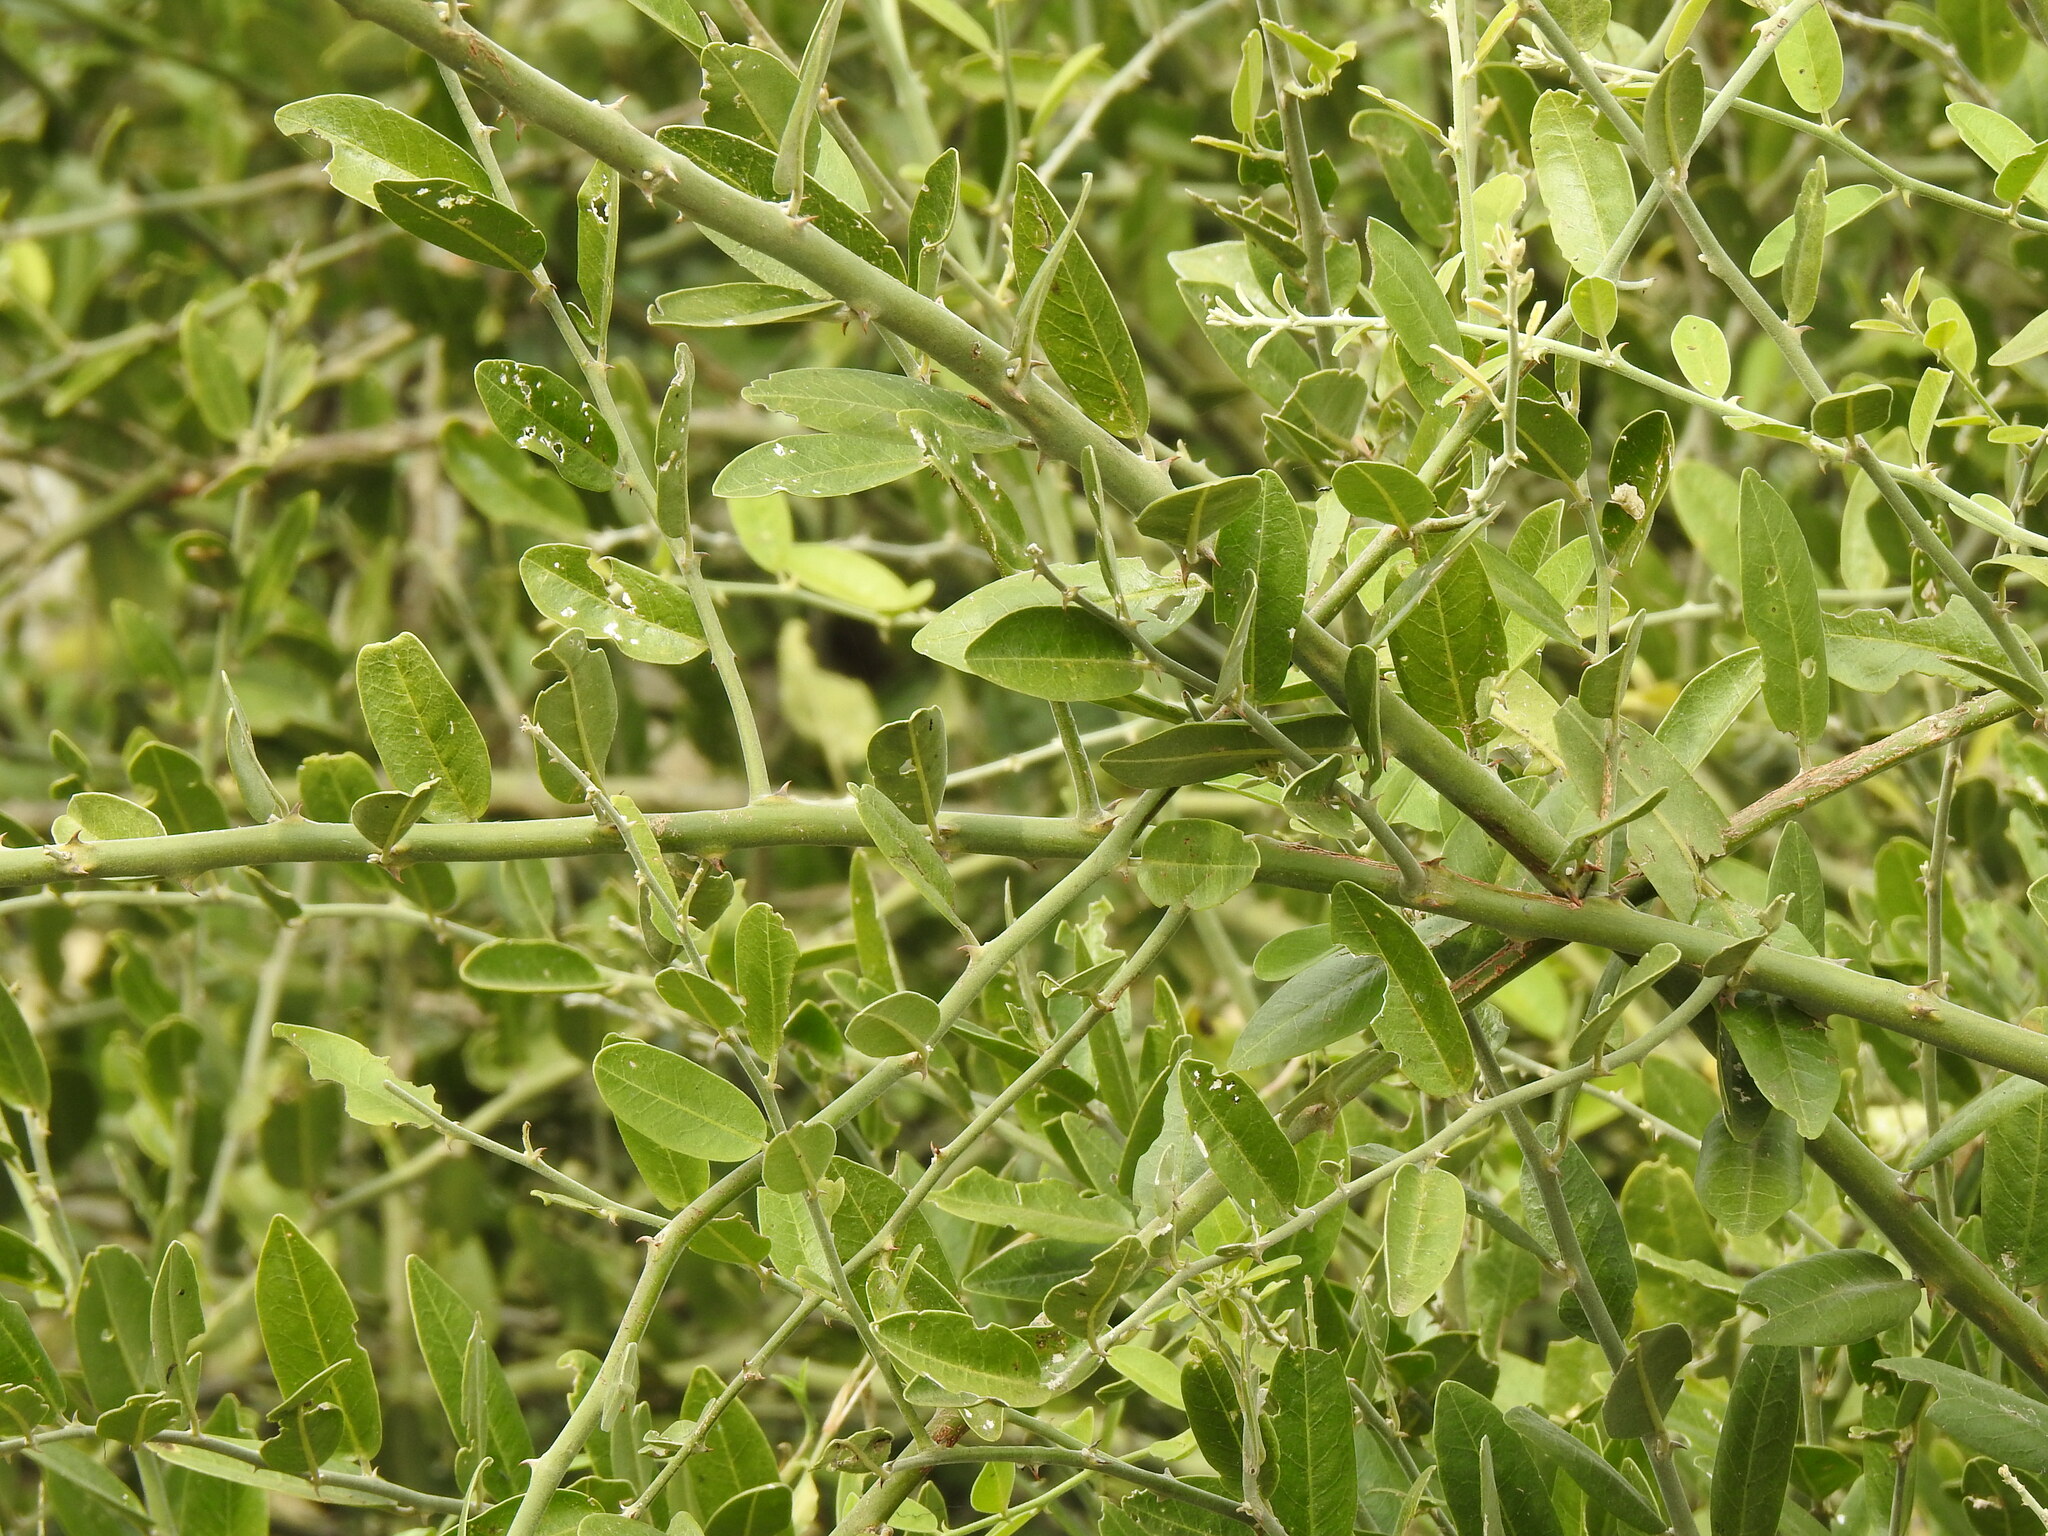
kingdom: Plantae
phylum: Tracheophyta
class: Magnoliopsida
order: Brassicales
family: Capparaceae
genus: Capparis
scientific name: Capparis tomentosa
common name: African caper
